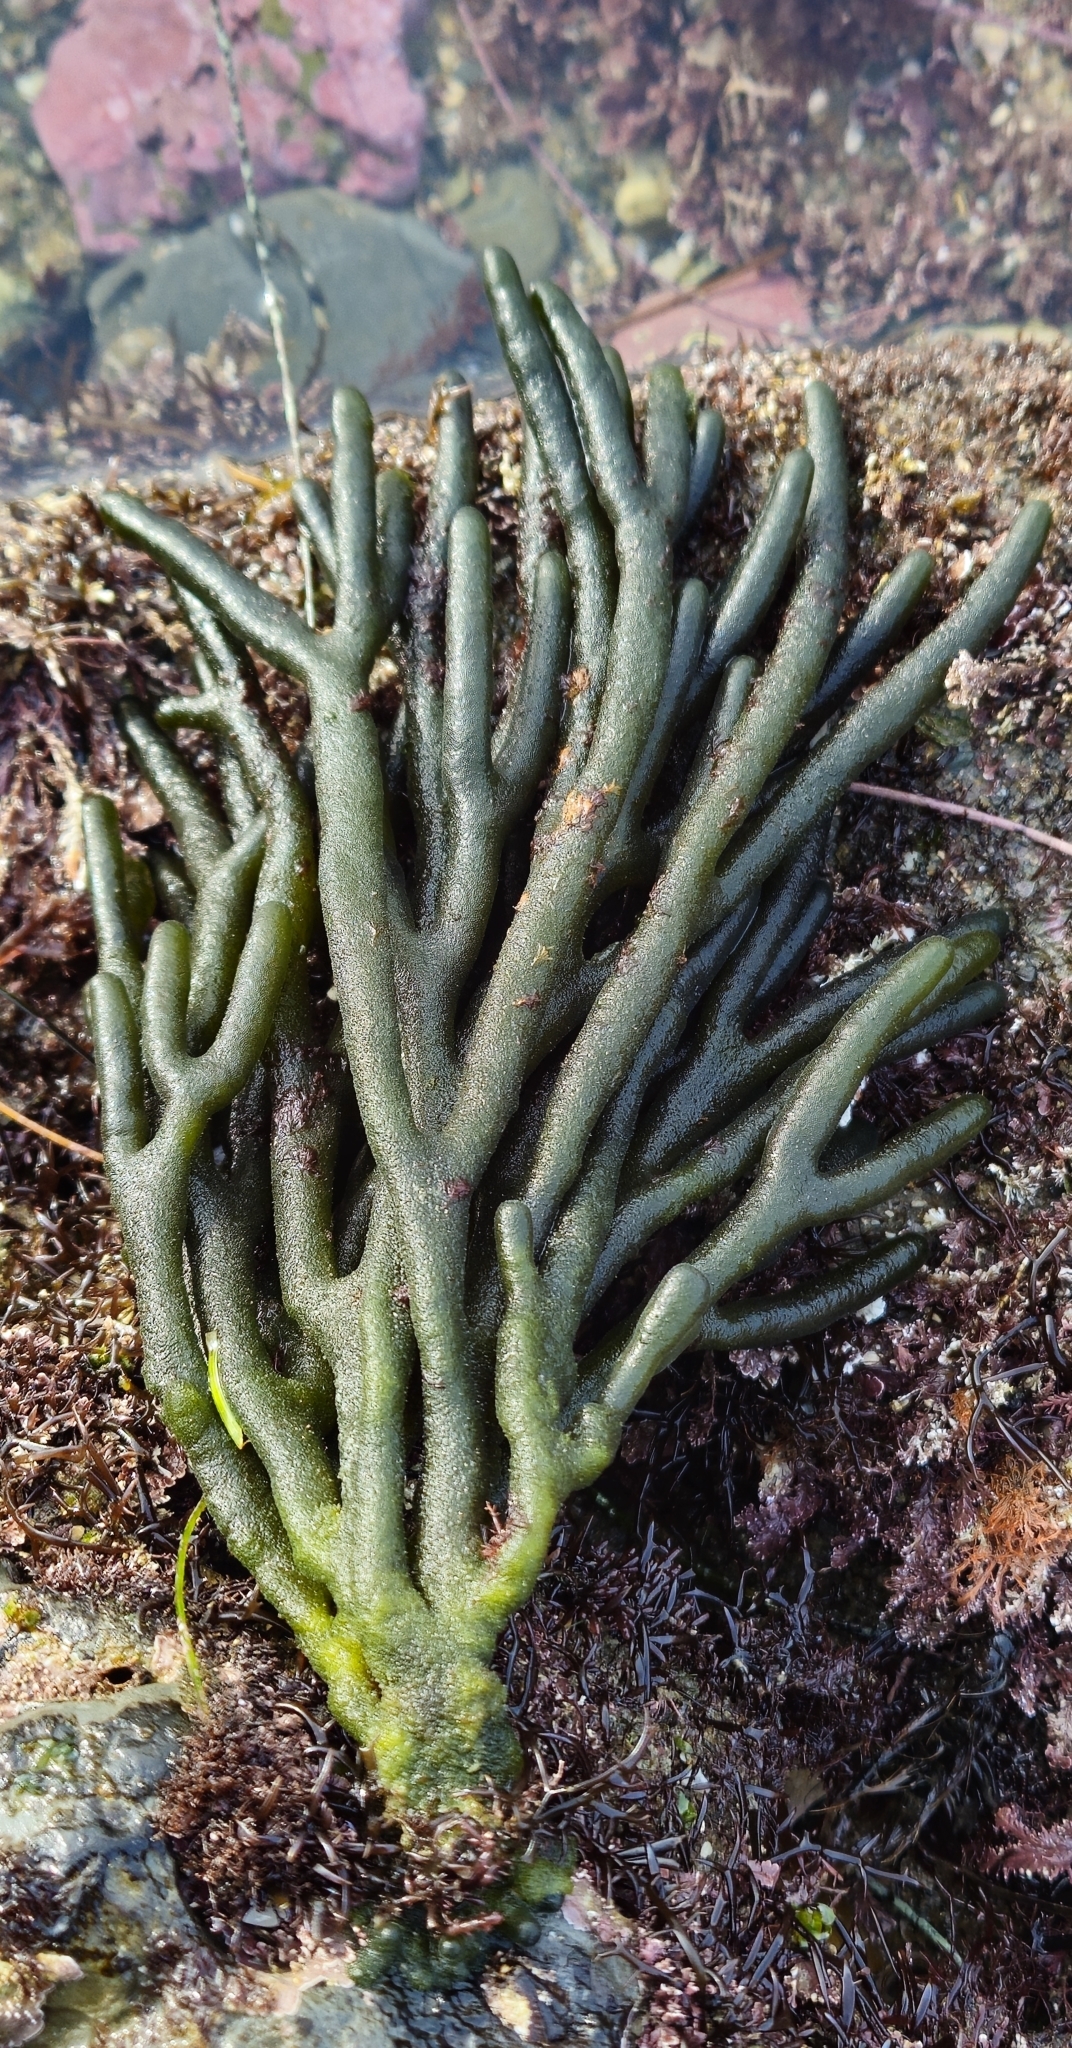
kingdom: Plantae
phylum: Chlorophyta
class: Ulvophyceae
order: Bryopsidales
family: Codiaceae
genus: Codium
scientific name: Codium fragile
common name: Dead man's fingers
